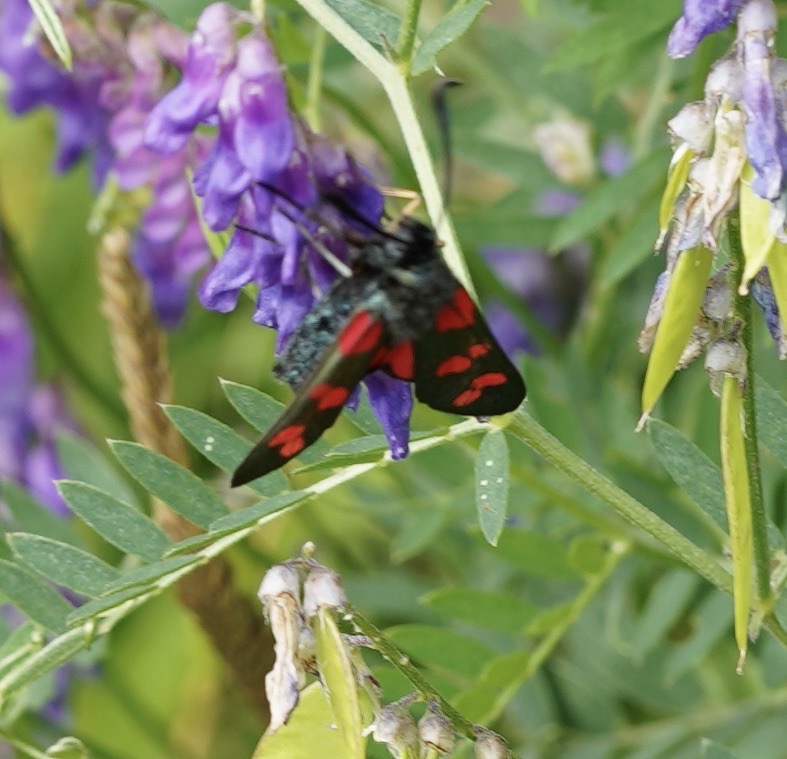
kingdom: Animalia
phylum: Arthropoda
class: Insecta
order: Lepidoptera
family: Zygaenidae
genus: Zygaena
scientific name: Zygaena filipendulae
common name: Six-spot burnet
